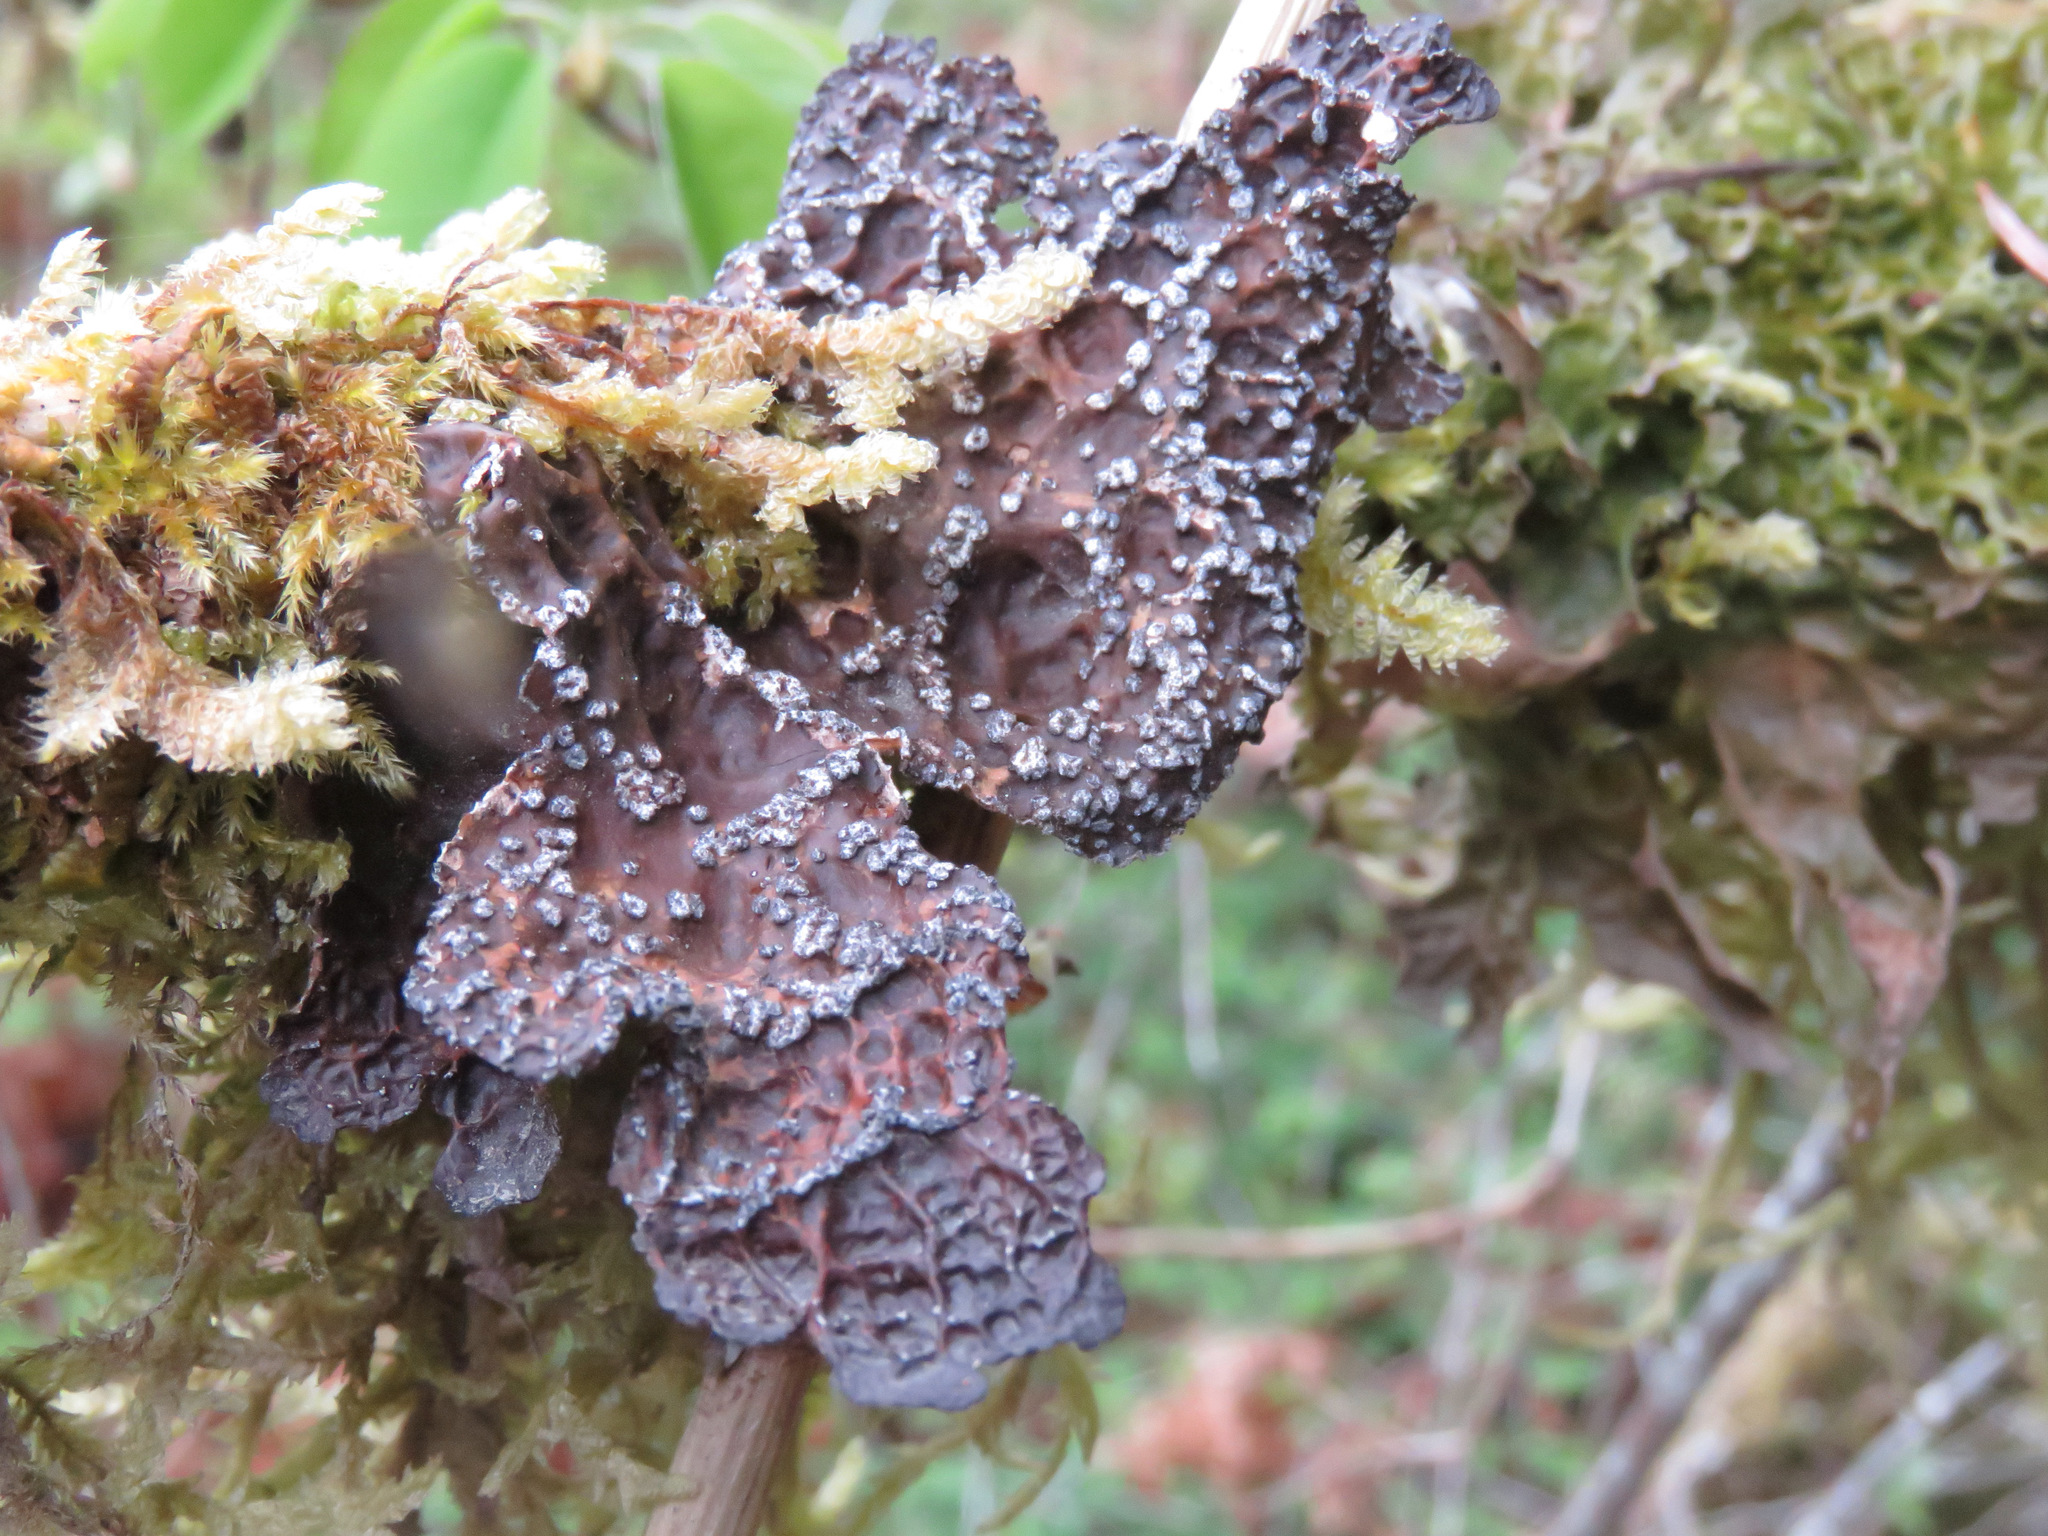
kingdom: Fungi
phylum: Ascomycota
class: Lecanoromycetes
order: Peltigerales
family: Lobariaceae
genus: Lobaria
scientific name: Lobaria anomala
